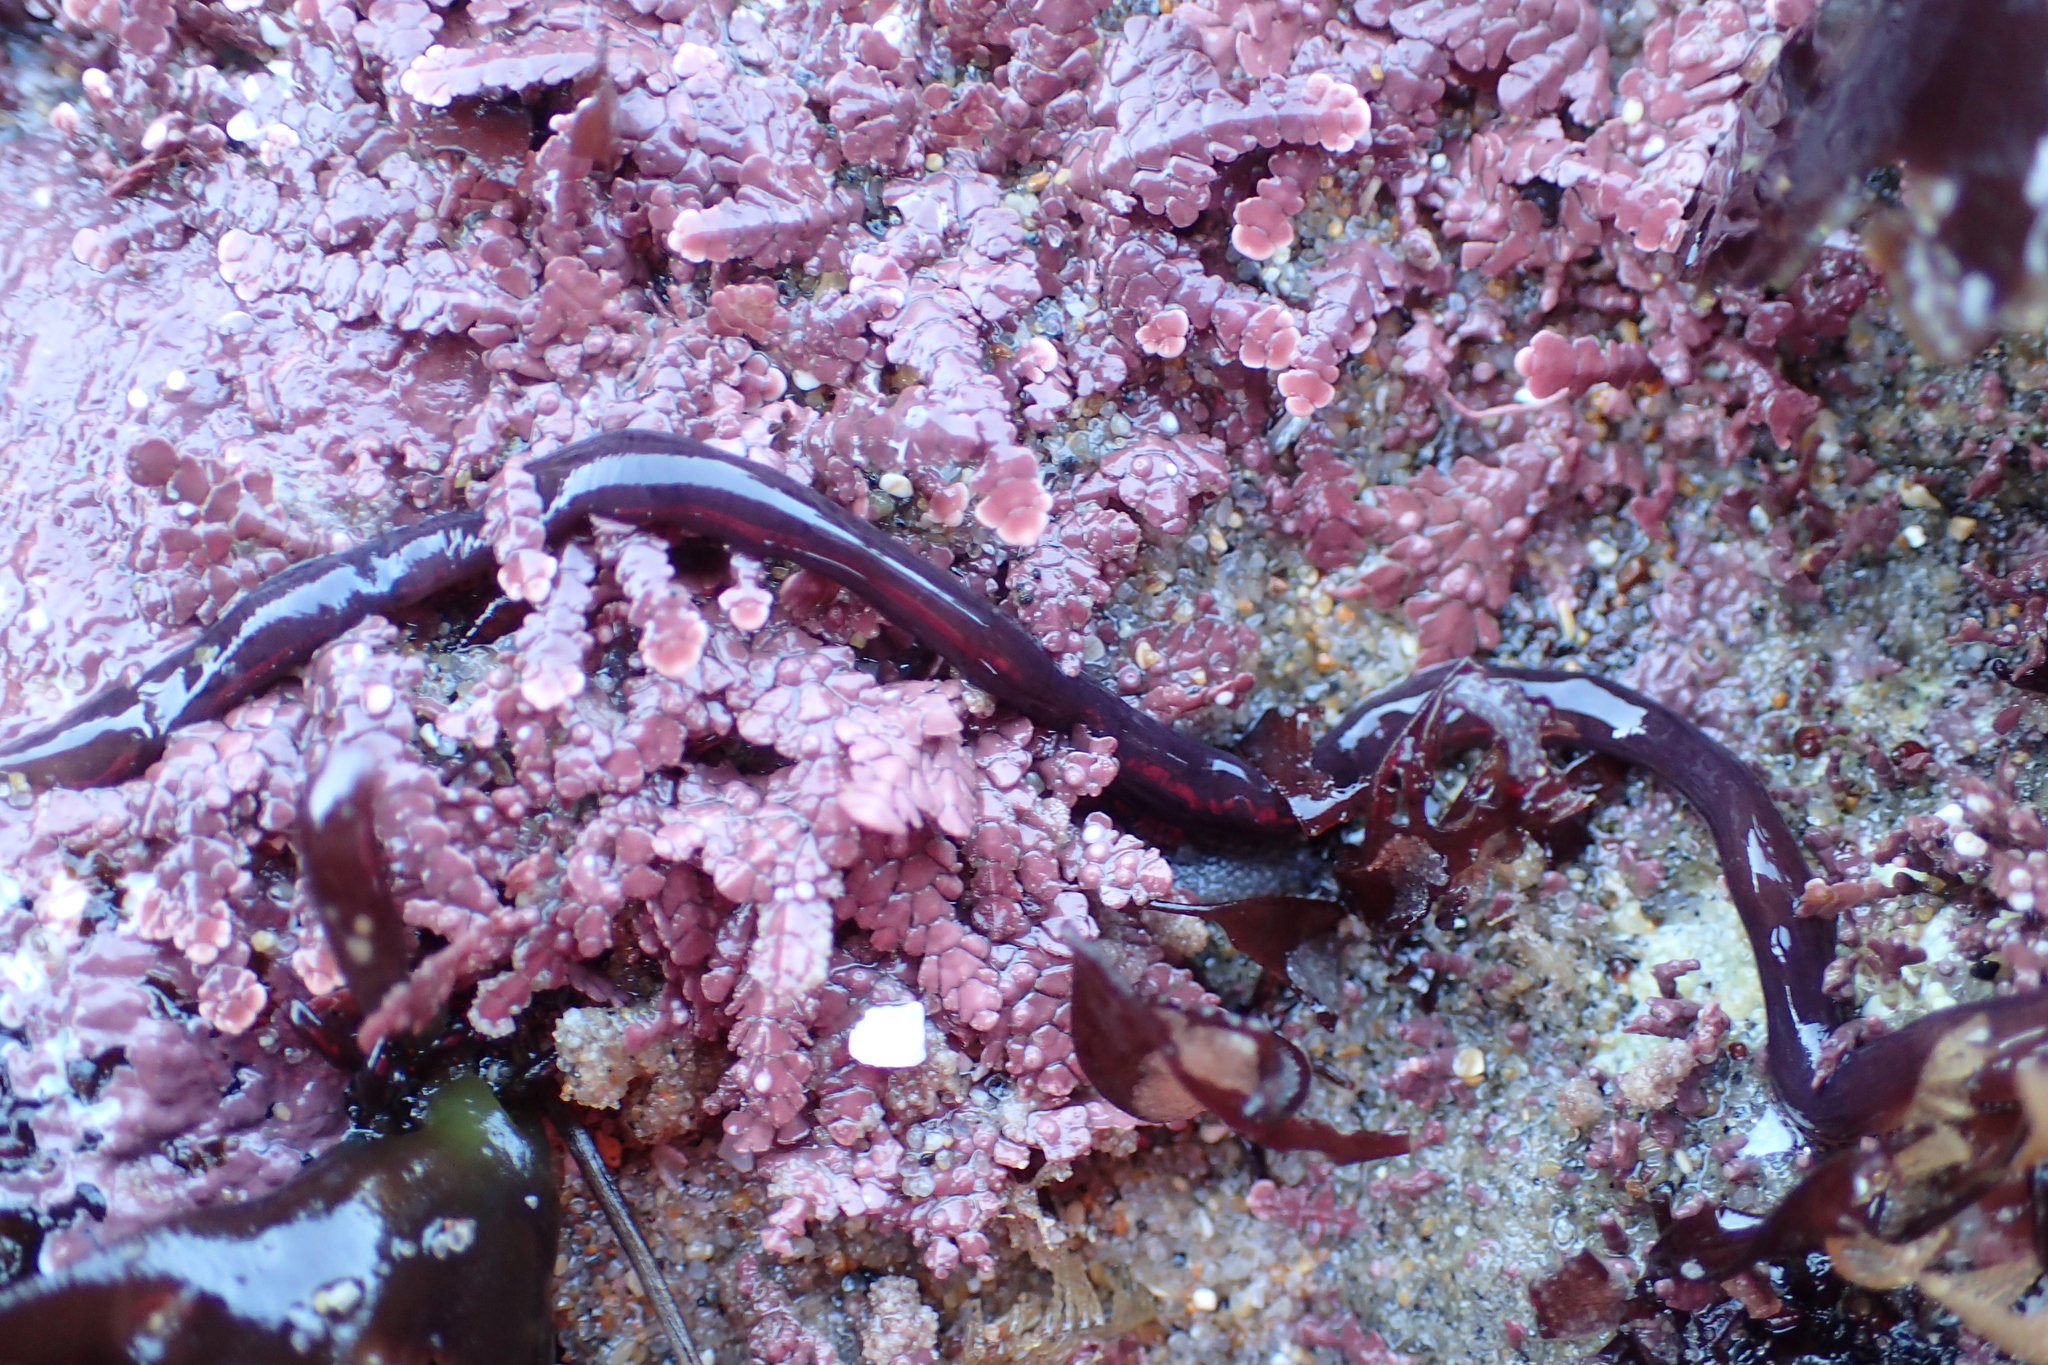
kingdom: Animalia
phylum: Nemertea
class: Hoplonemertea
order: Monostilifera
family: Neesiidae
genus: Paranemertes
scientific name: Paranemertes peregrina
